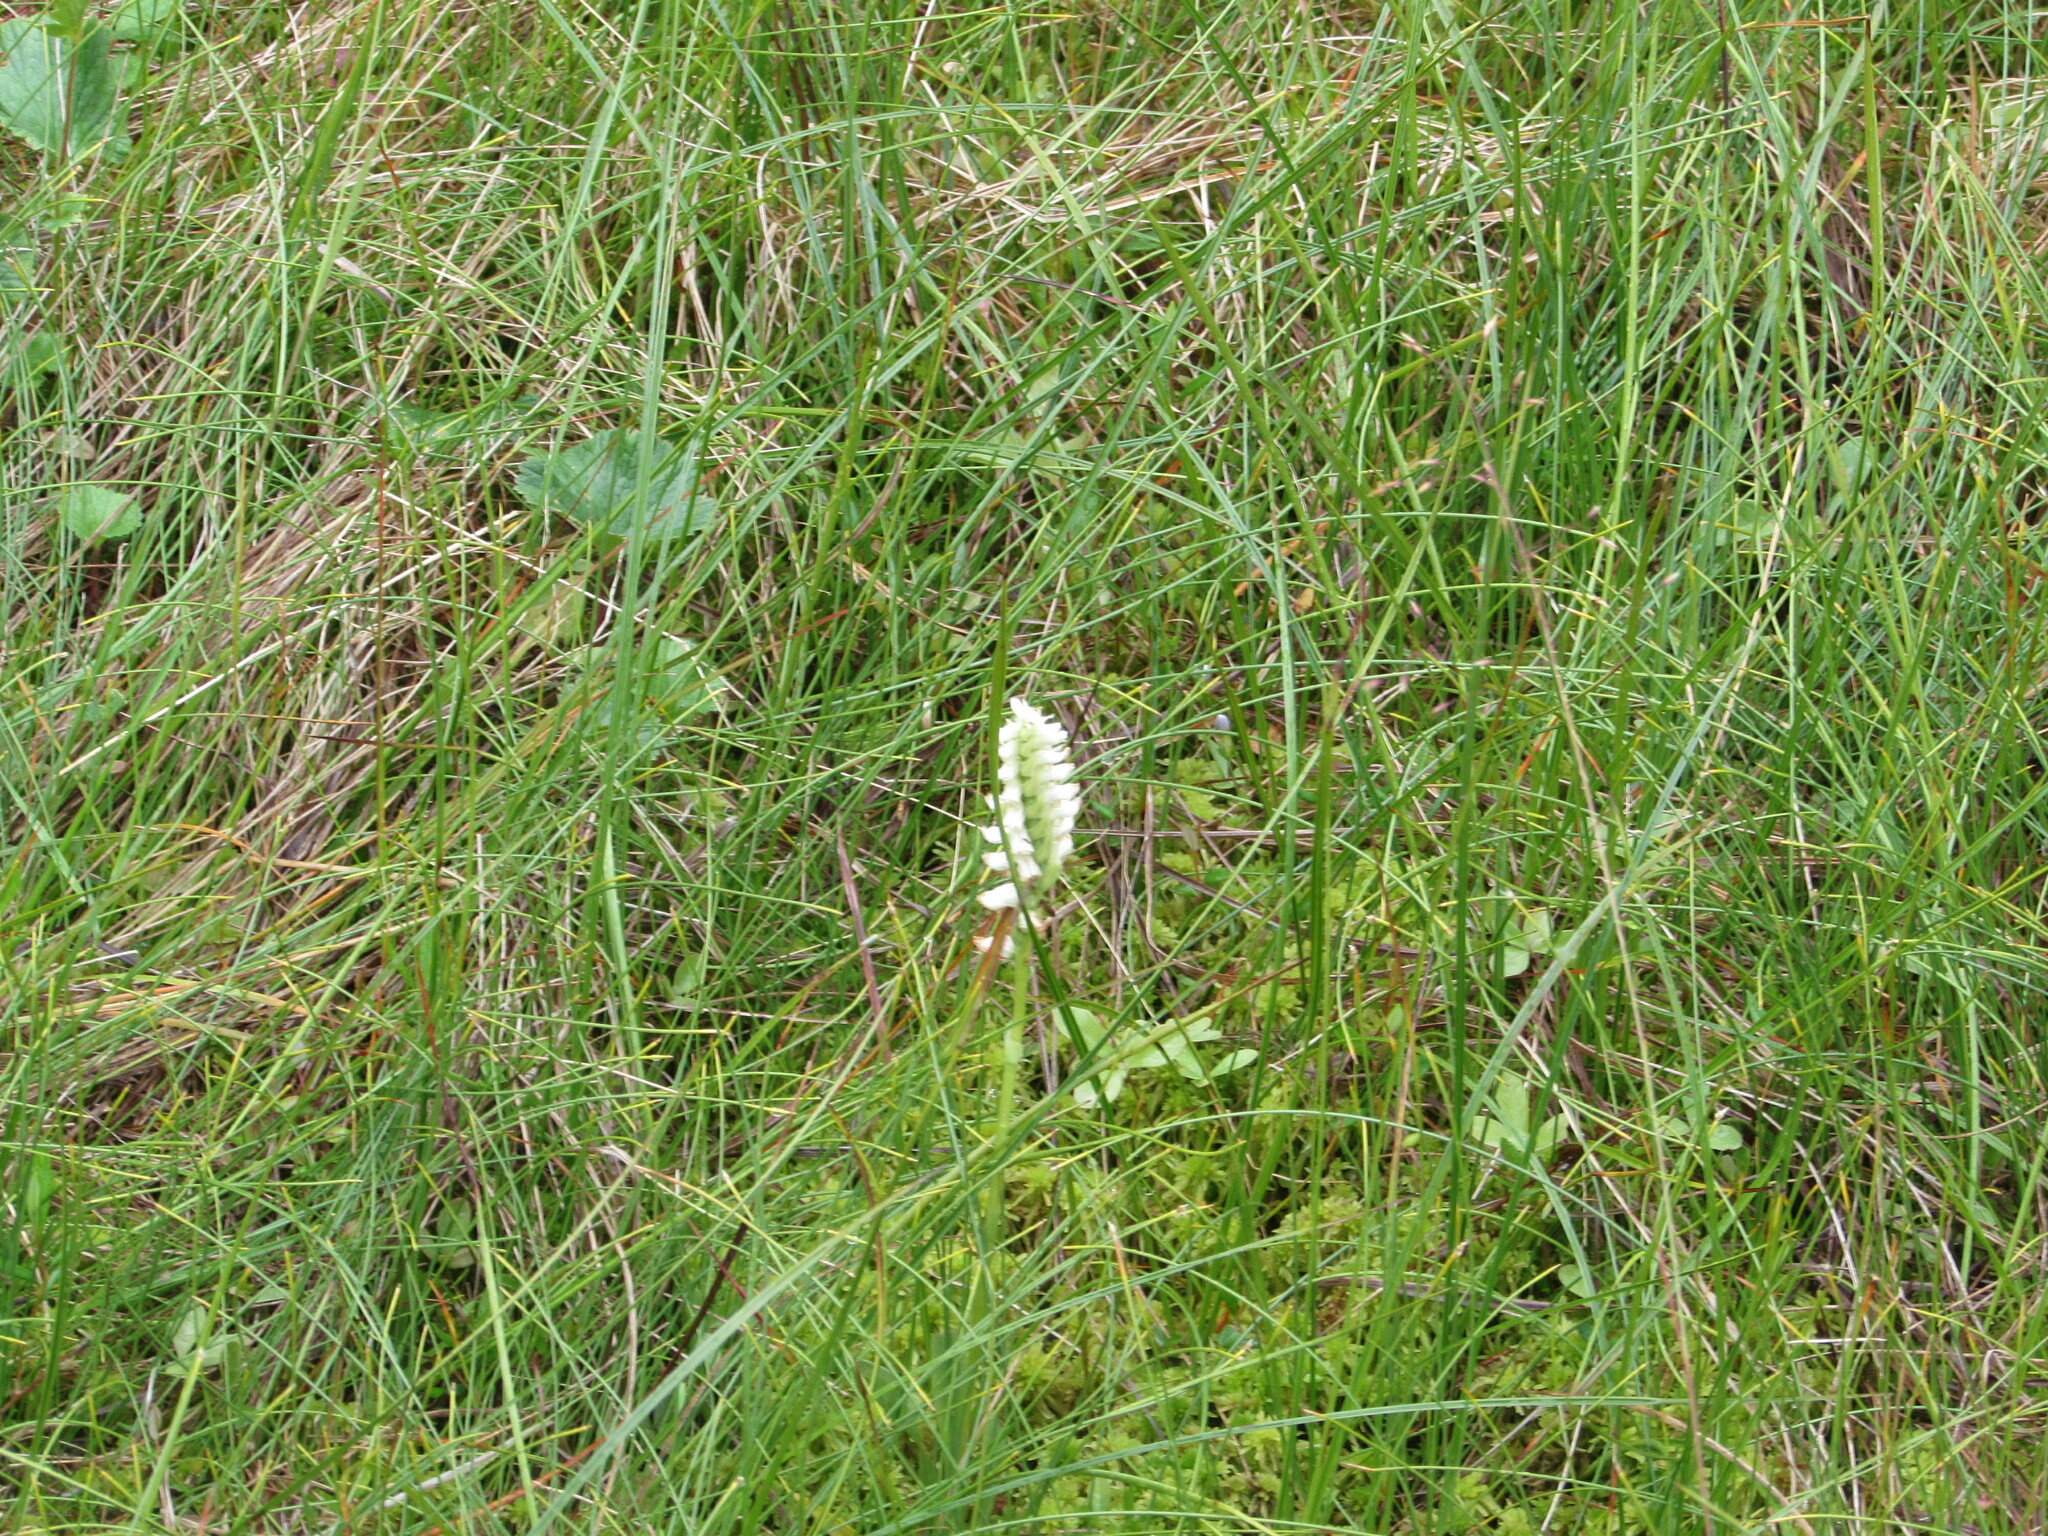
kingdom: Plantae
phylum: Tracheophyta
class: Liliopsida
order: Asparagales
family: Orchidaceae
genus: Spiranthes
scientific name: Spiranthes romanzoffiana
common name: Irish lady's-tresses
